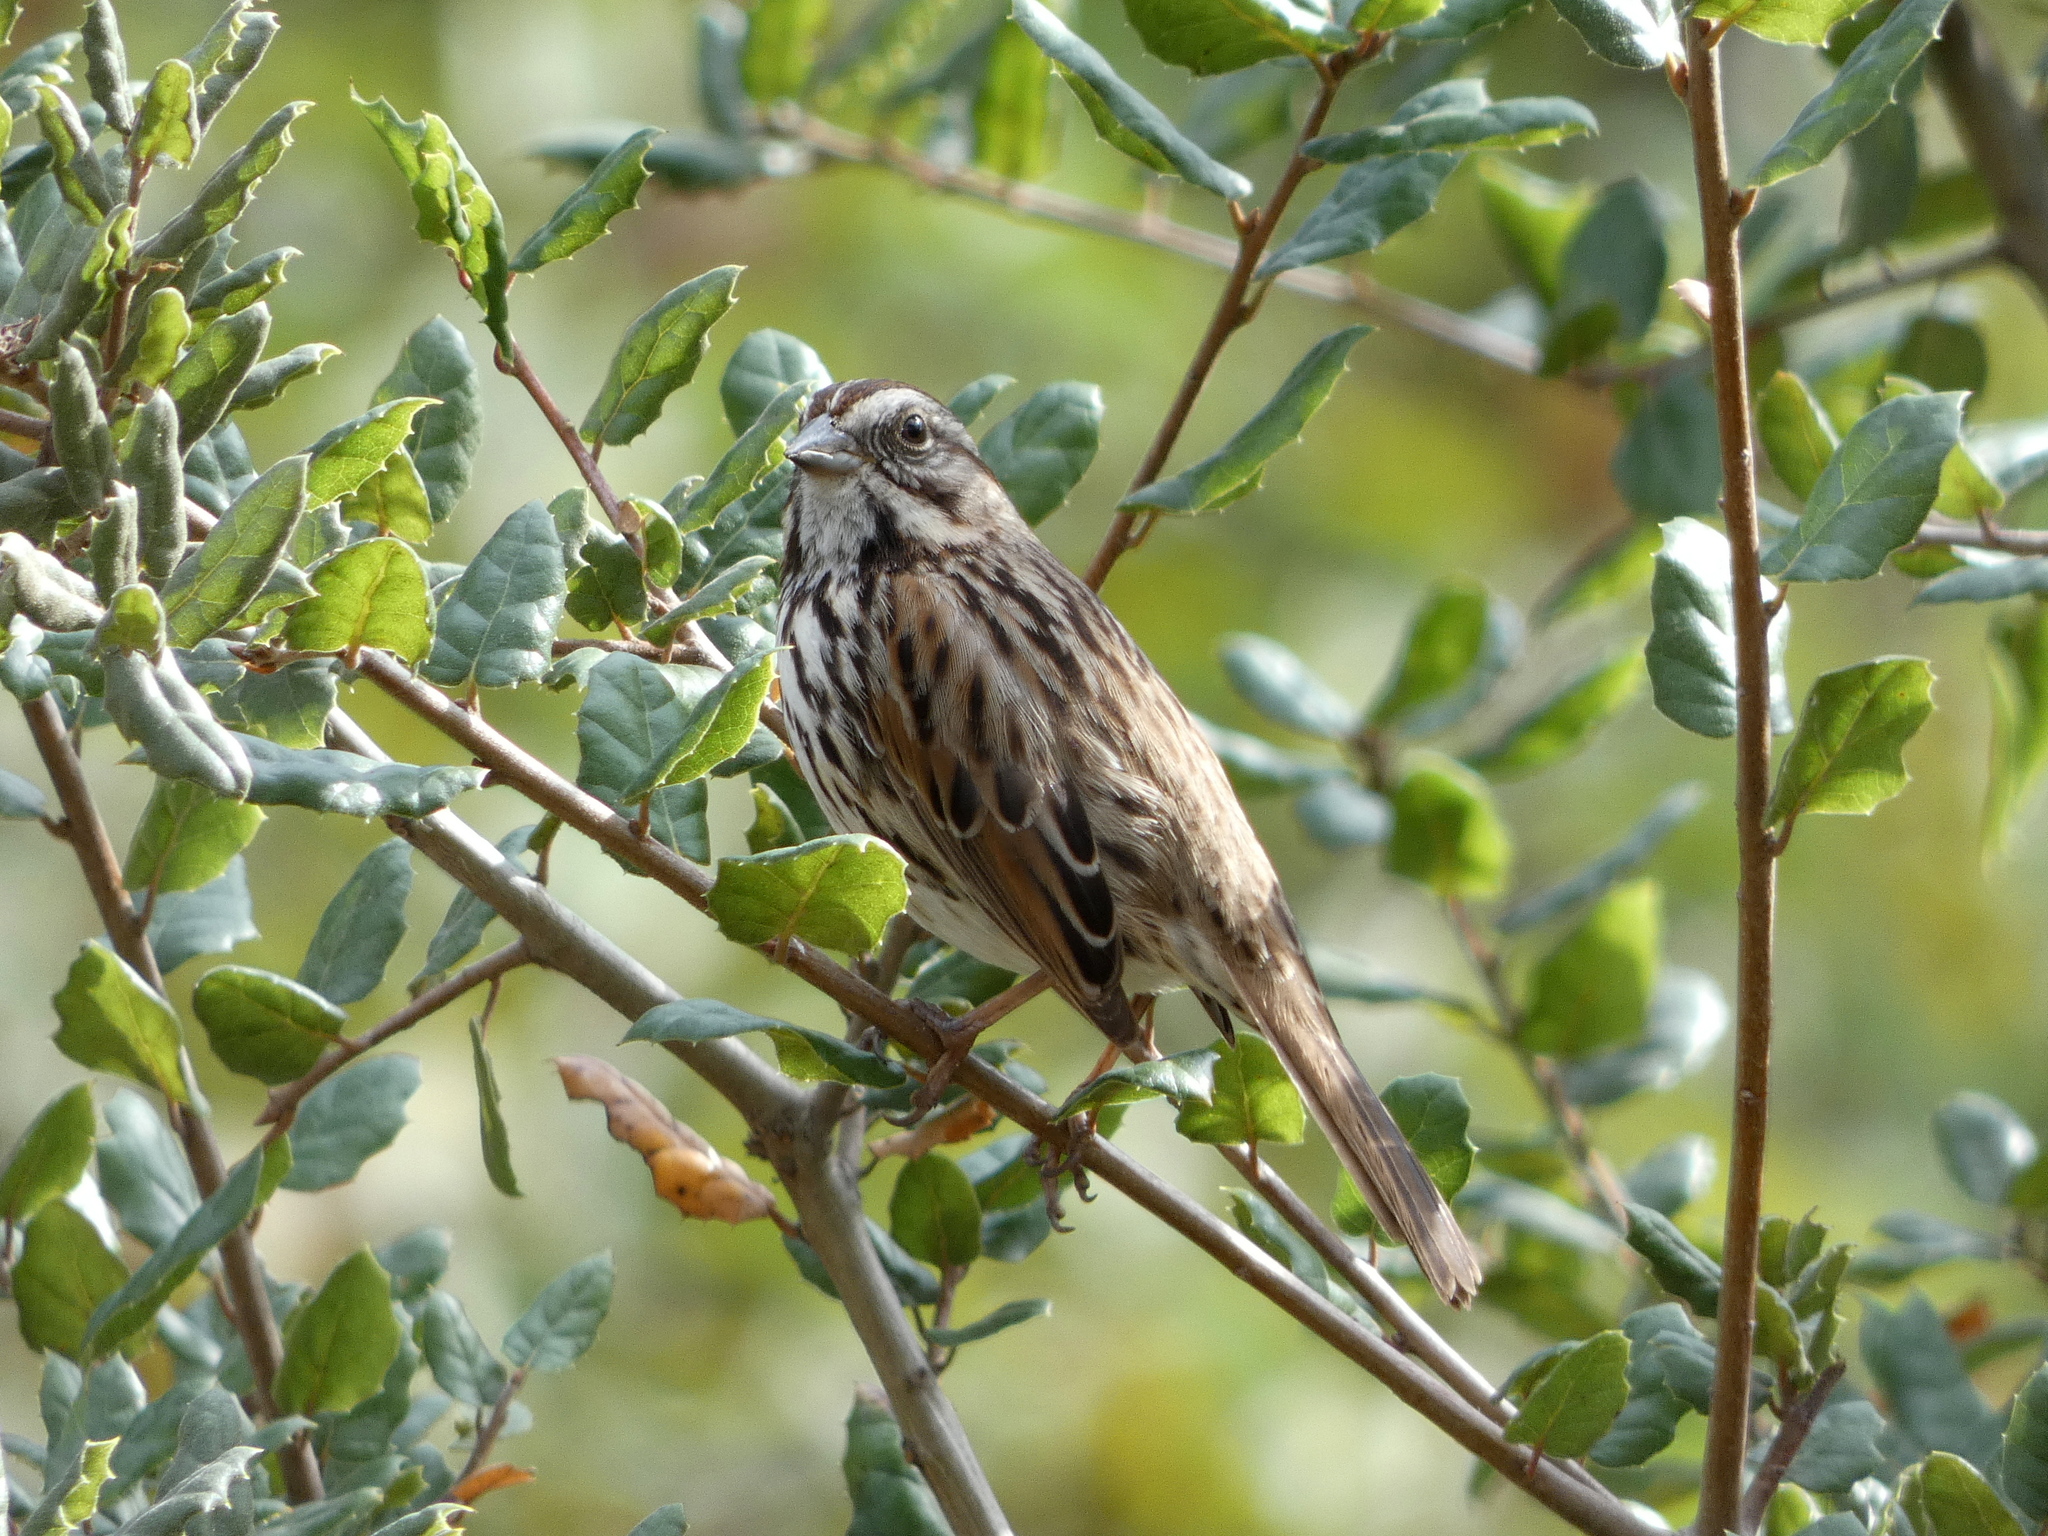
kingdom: Animalia
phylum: Chordata
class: Aves
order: Passeriformes
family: Passerellidae
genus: Melospiza
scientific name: Melospiza melodia
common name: Song sparrow
